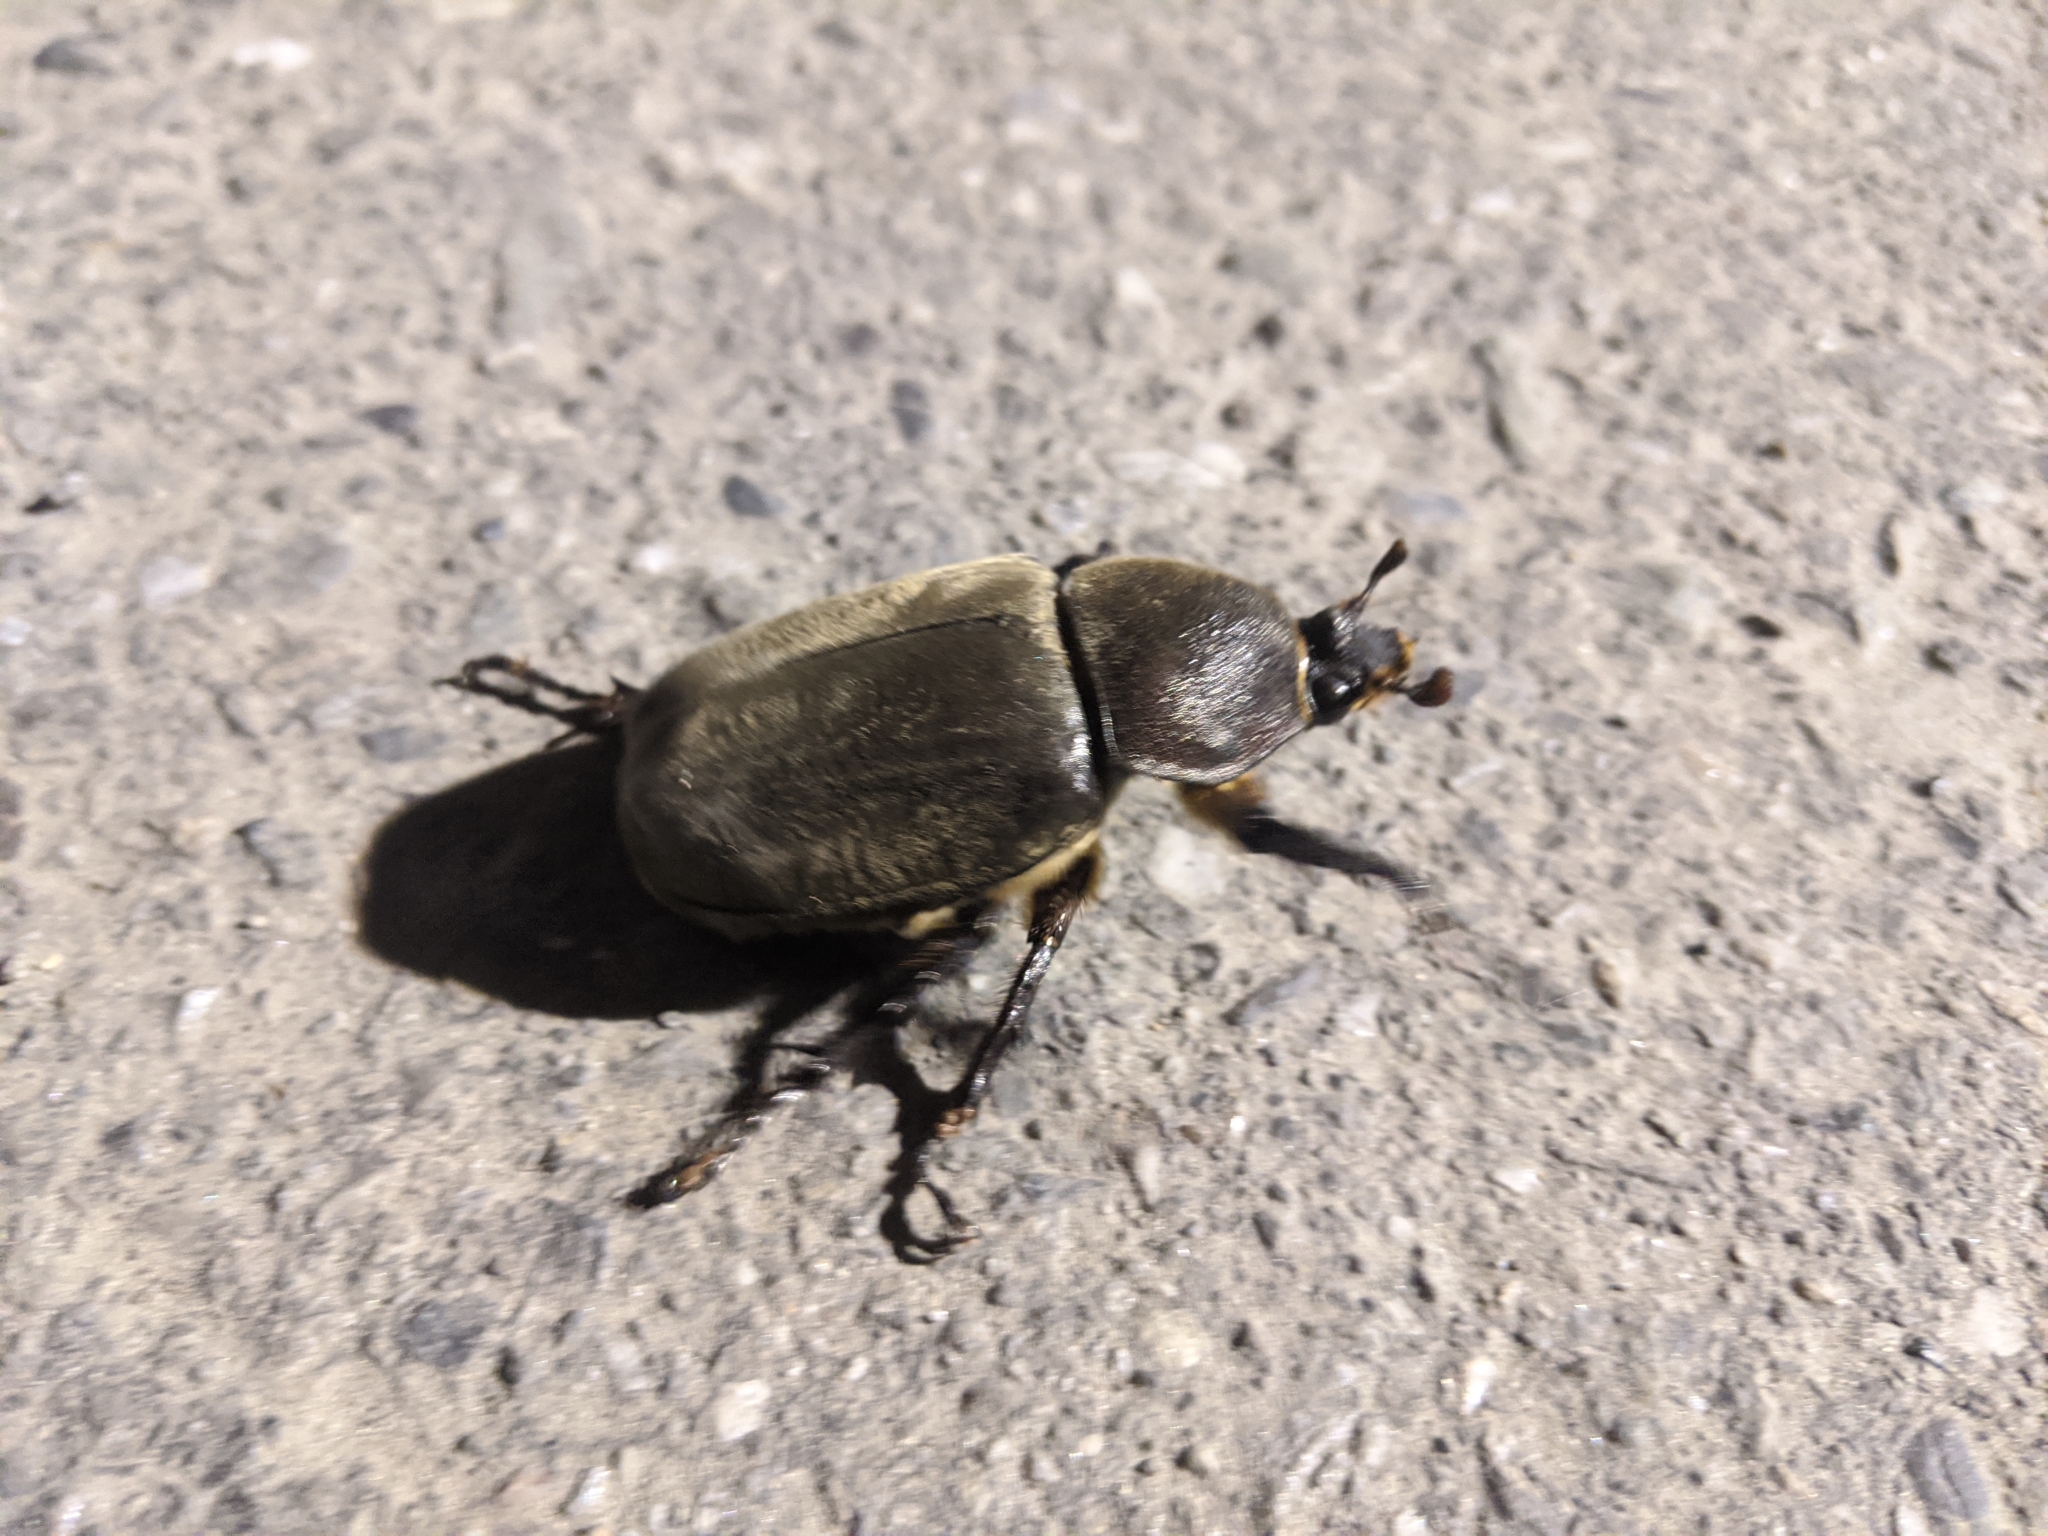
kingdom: Animalia
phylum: Arthropoda
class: Insecta
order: Coleoptera
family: Scarabaeidae
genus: Trypoxylus
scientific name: Trypoxylus dichotomus
